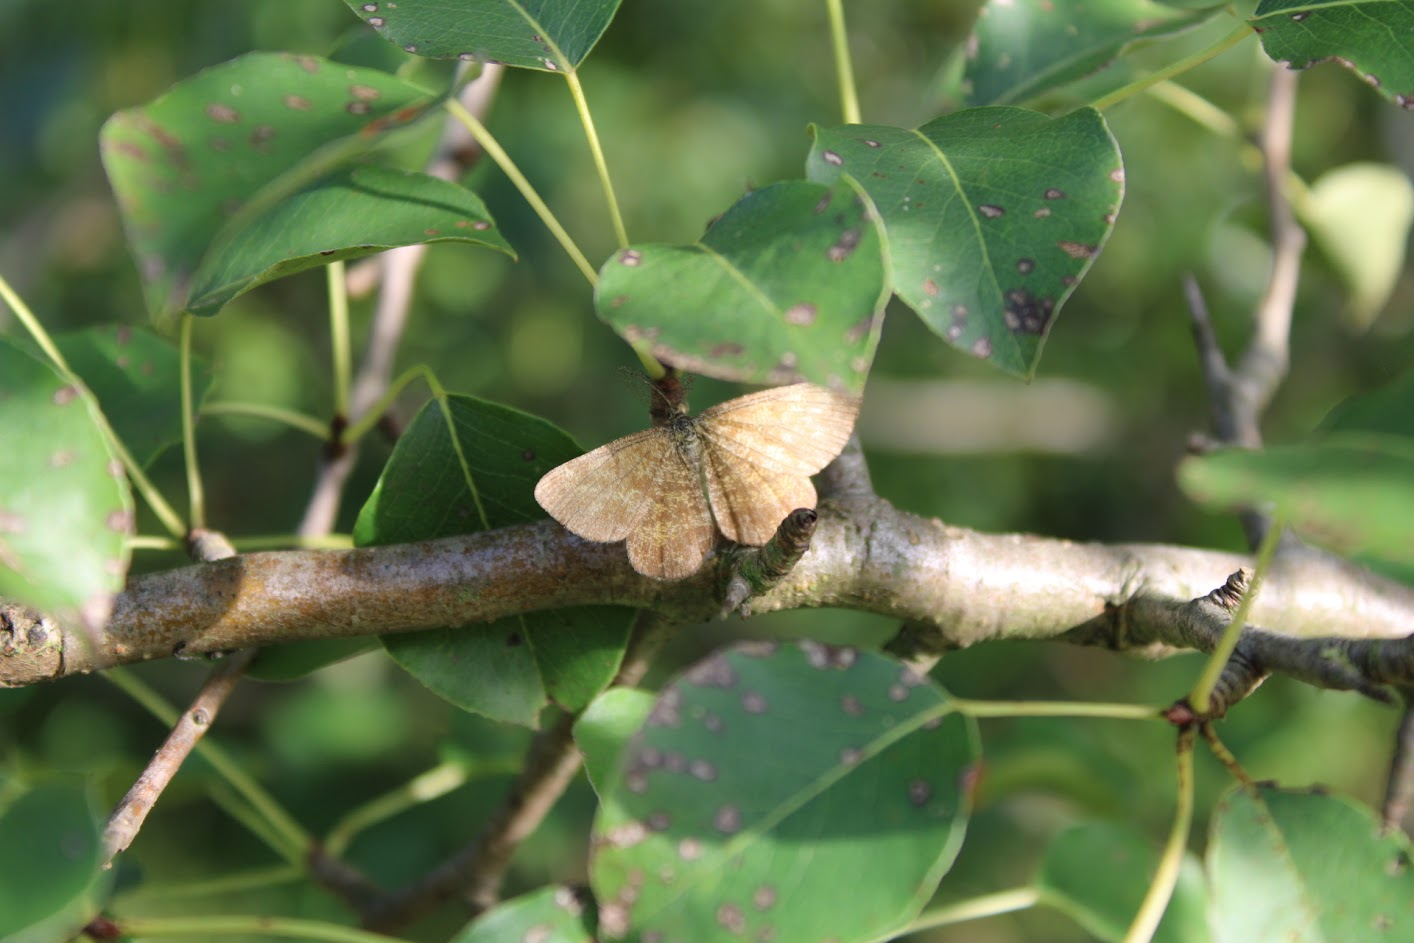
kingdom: Animalia
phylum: Arthropoda
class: Insecta
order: Lepidoptera
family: Geometridae
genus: Ematurga
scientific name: Ematurga atomaria
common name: Common heath
